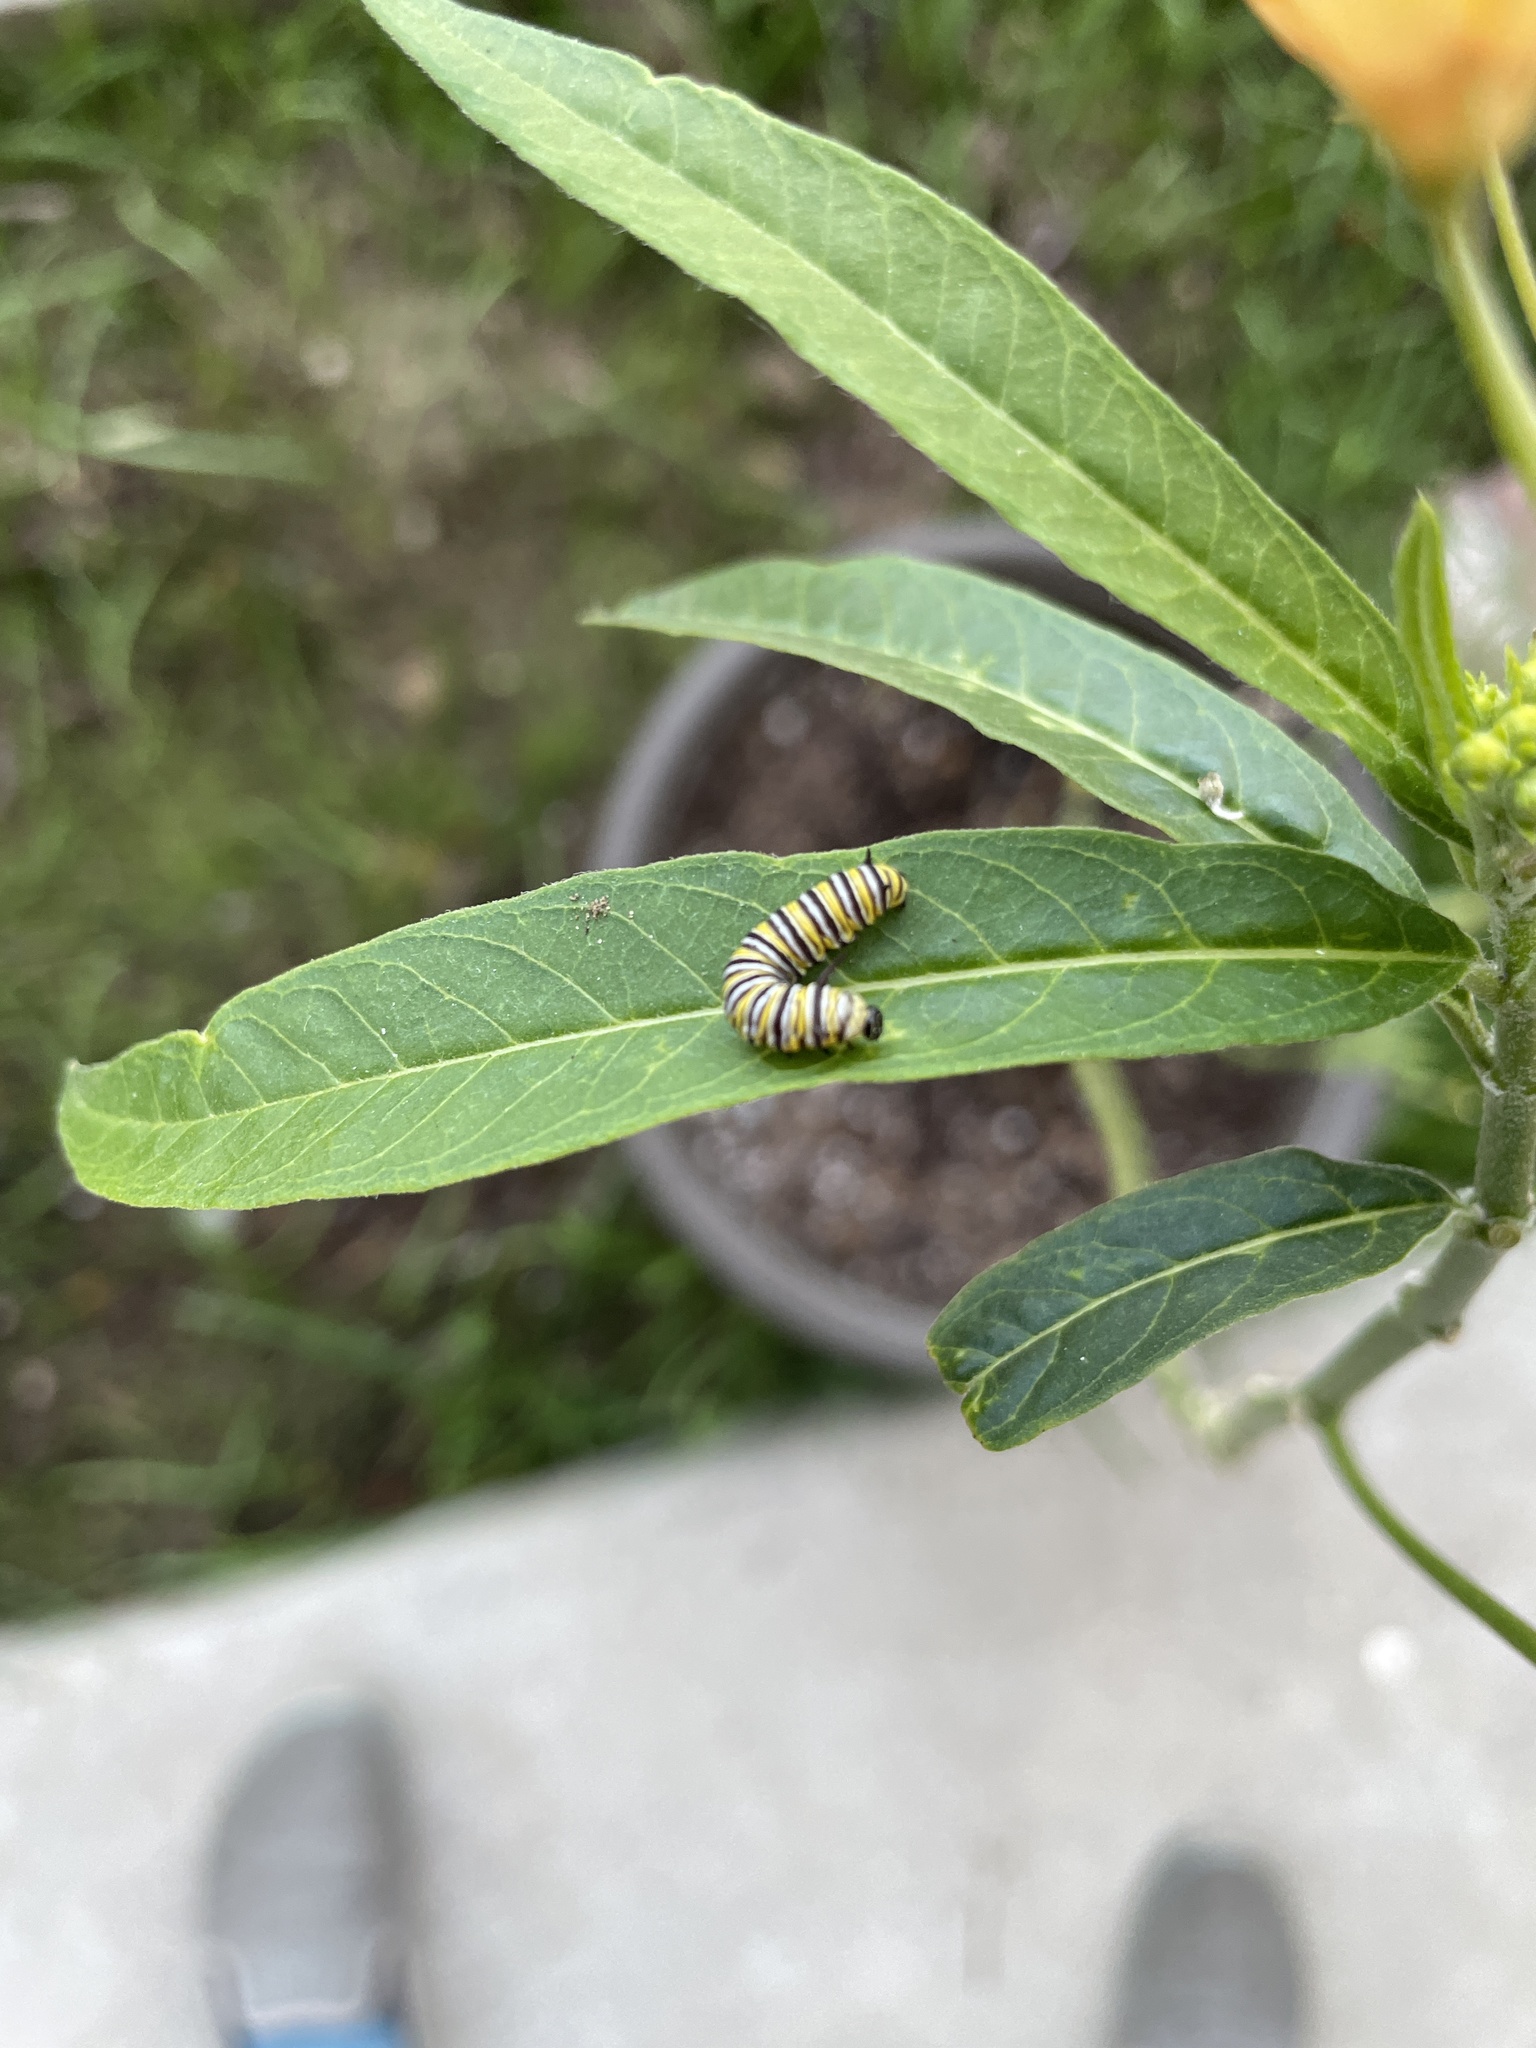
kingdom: Animalia
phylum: Arthropoda
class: Insecta
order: Lepidoptera
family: Nymphalidae
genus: Danaus
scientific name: Danaus plexippus
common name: Monarch
